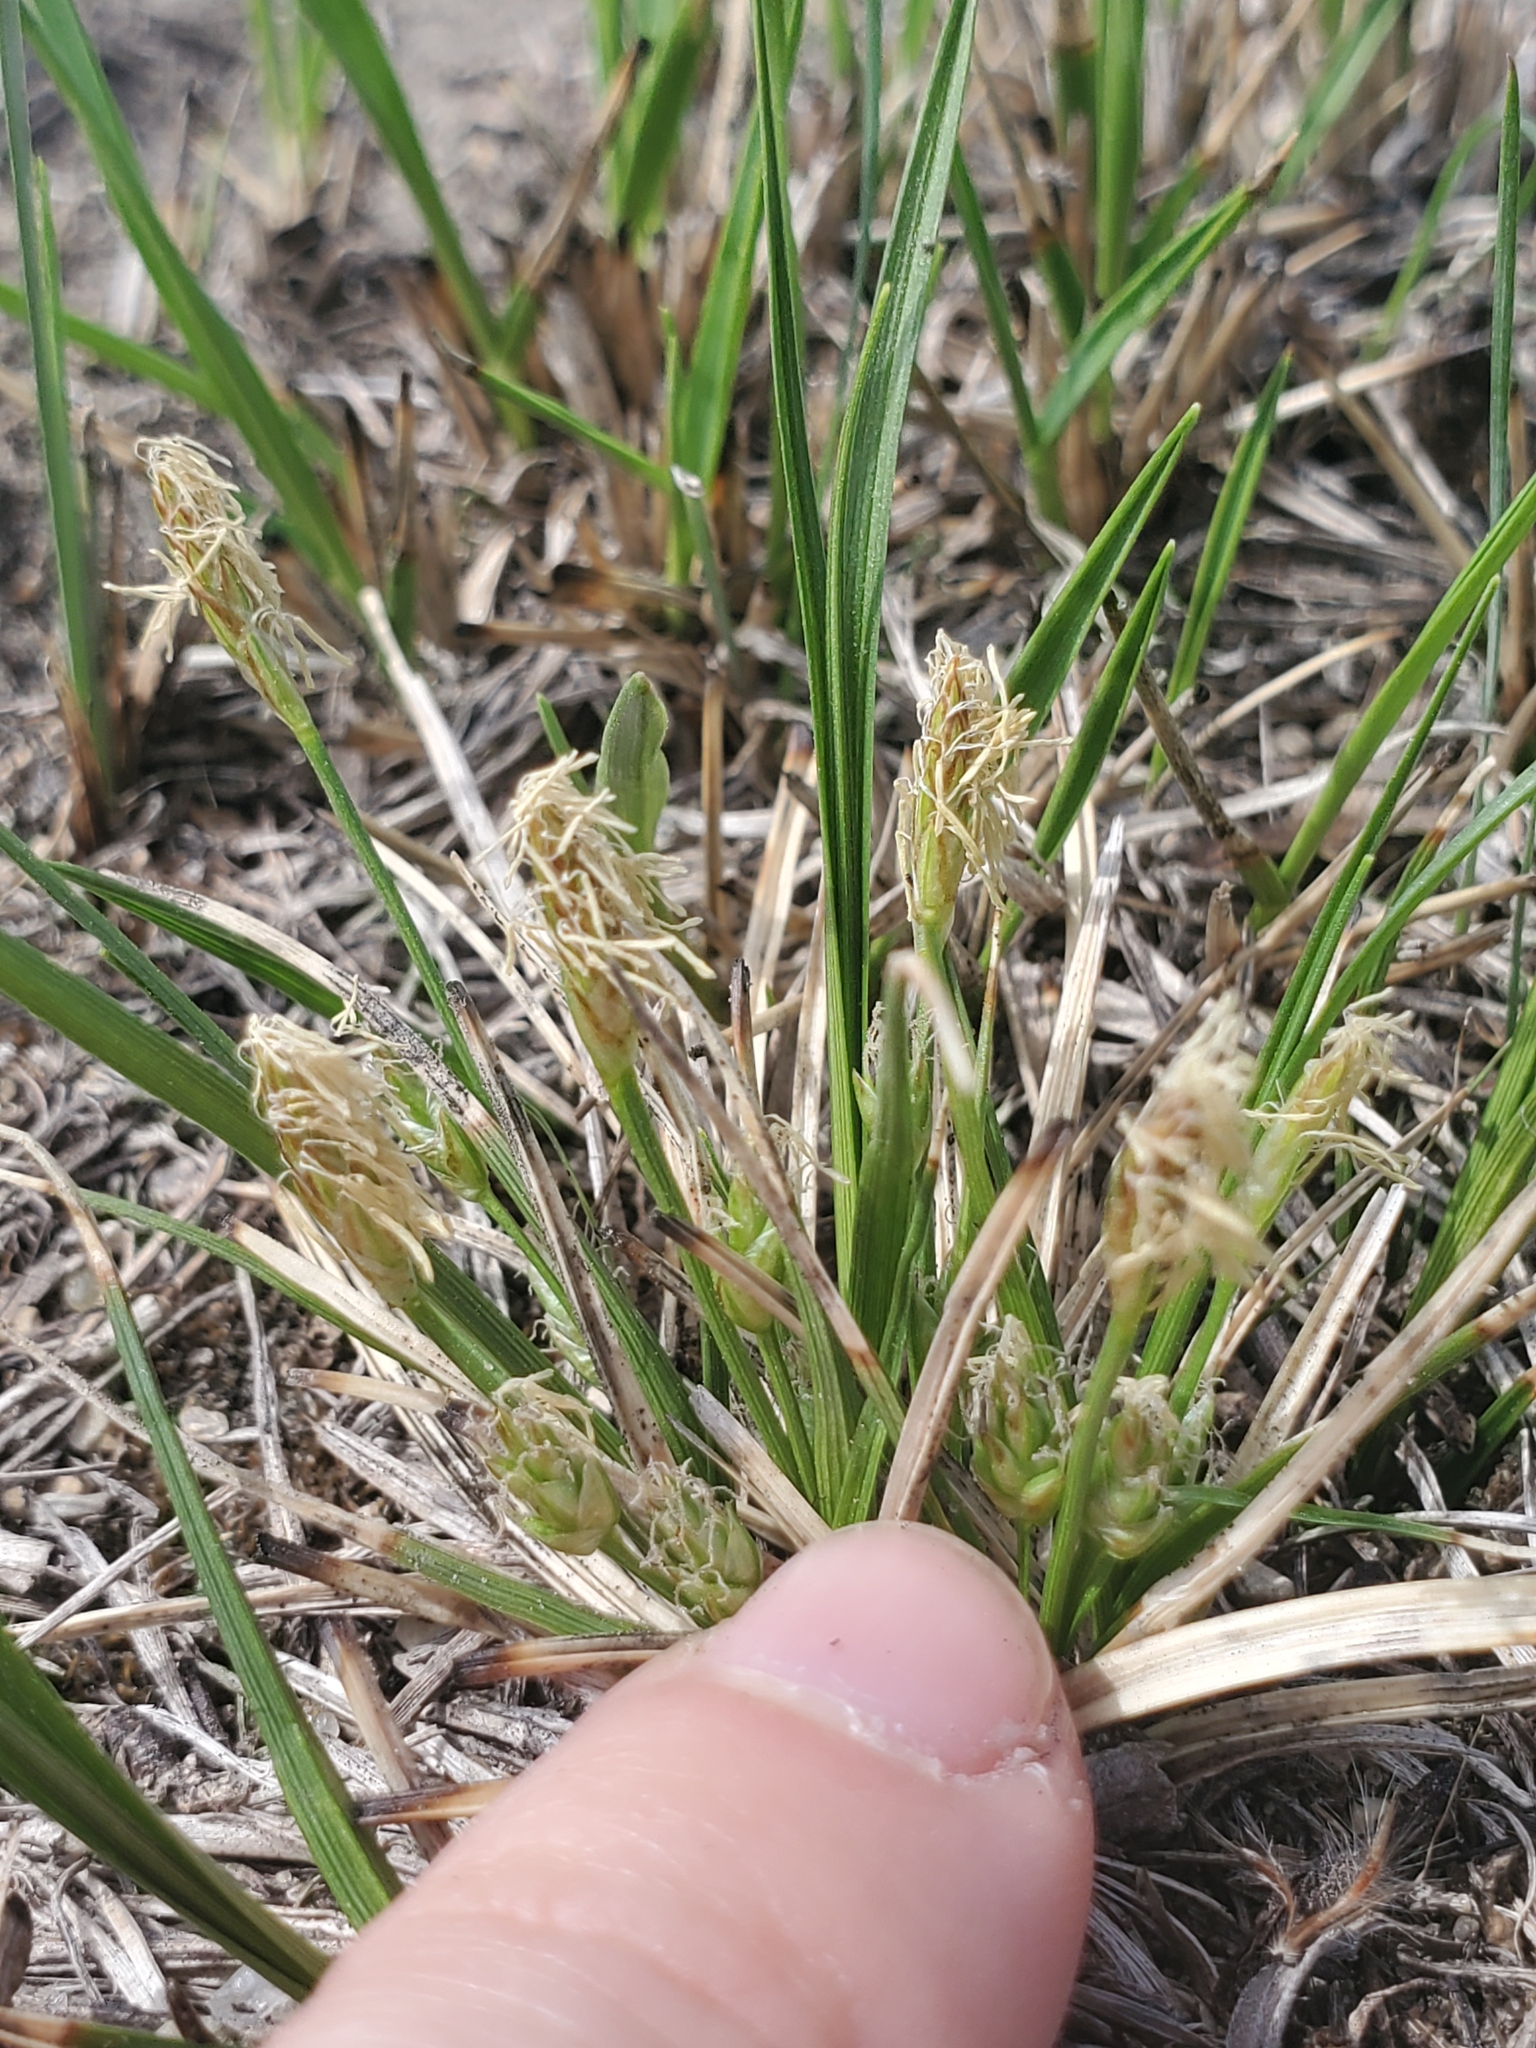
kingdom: Plantae
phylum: Tracheophyta
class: Liliopsida
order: Poales
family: Cyperaceae
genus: Carex
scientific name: Carex umbellata
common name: Early oak sedge
